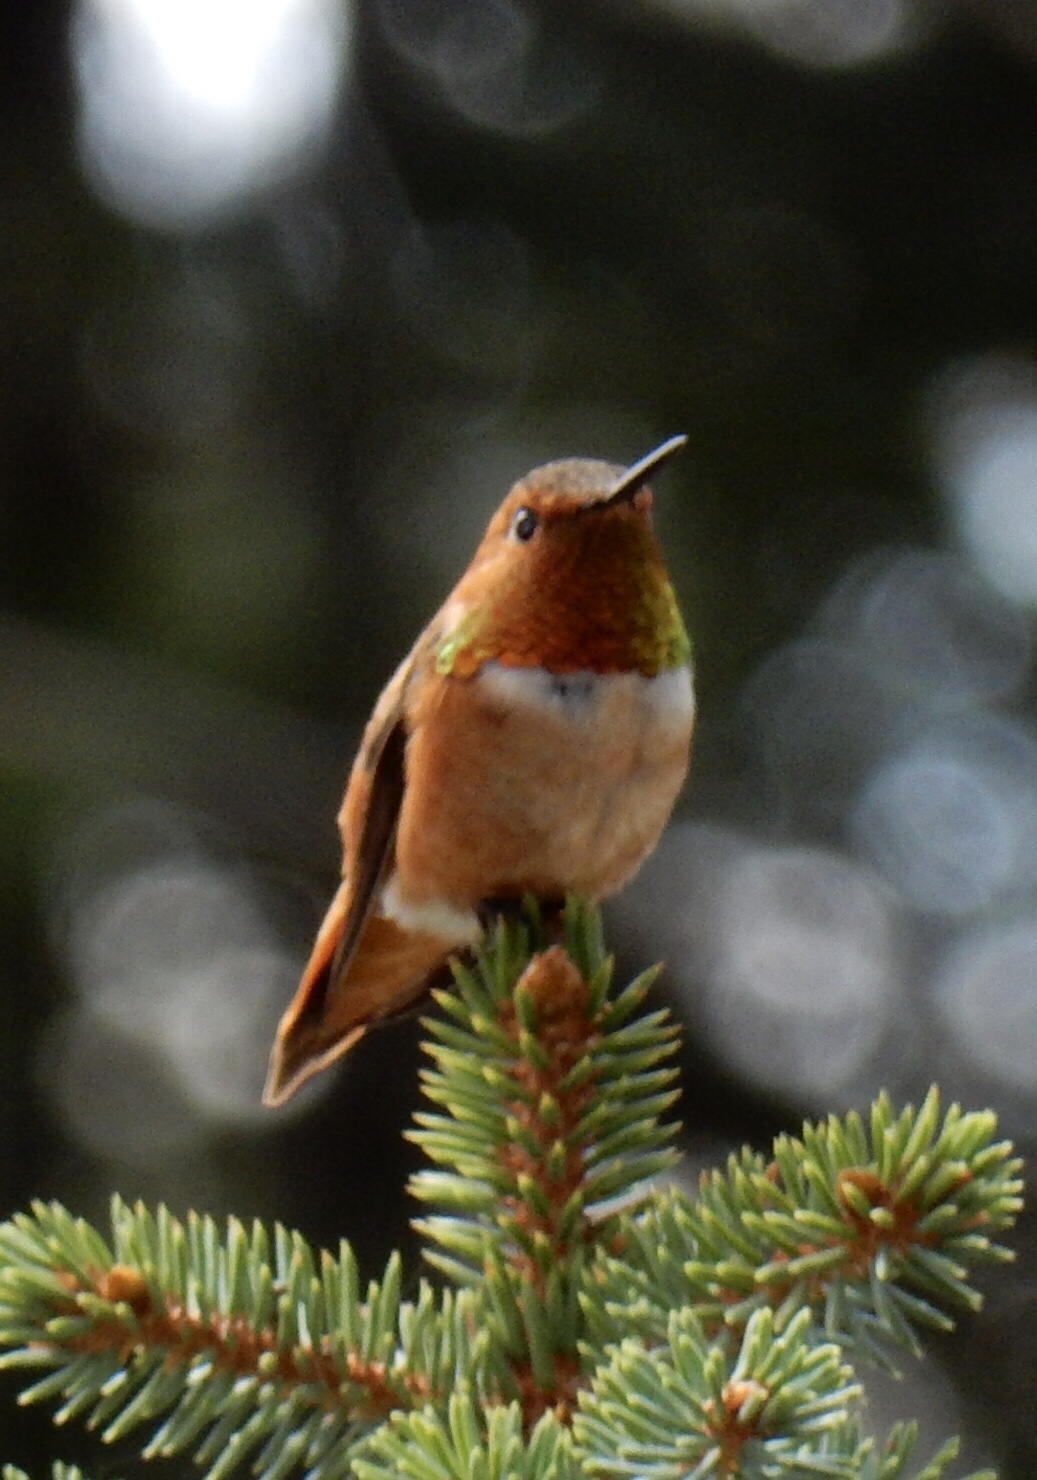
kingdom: Animalia
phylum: Chordata
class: Aves
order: Apodiformes
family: Trochilidae
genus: Selasphorus
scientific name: Selasphorus rufus
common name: Rufous hummingbird
